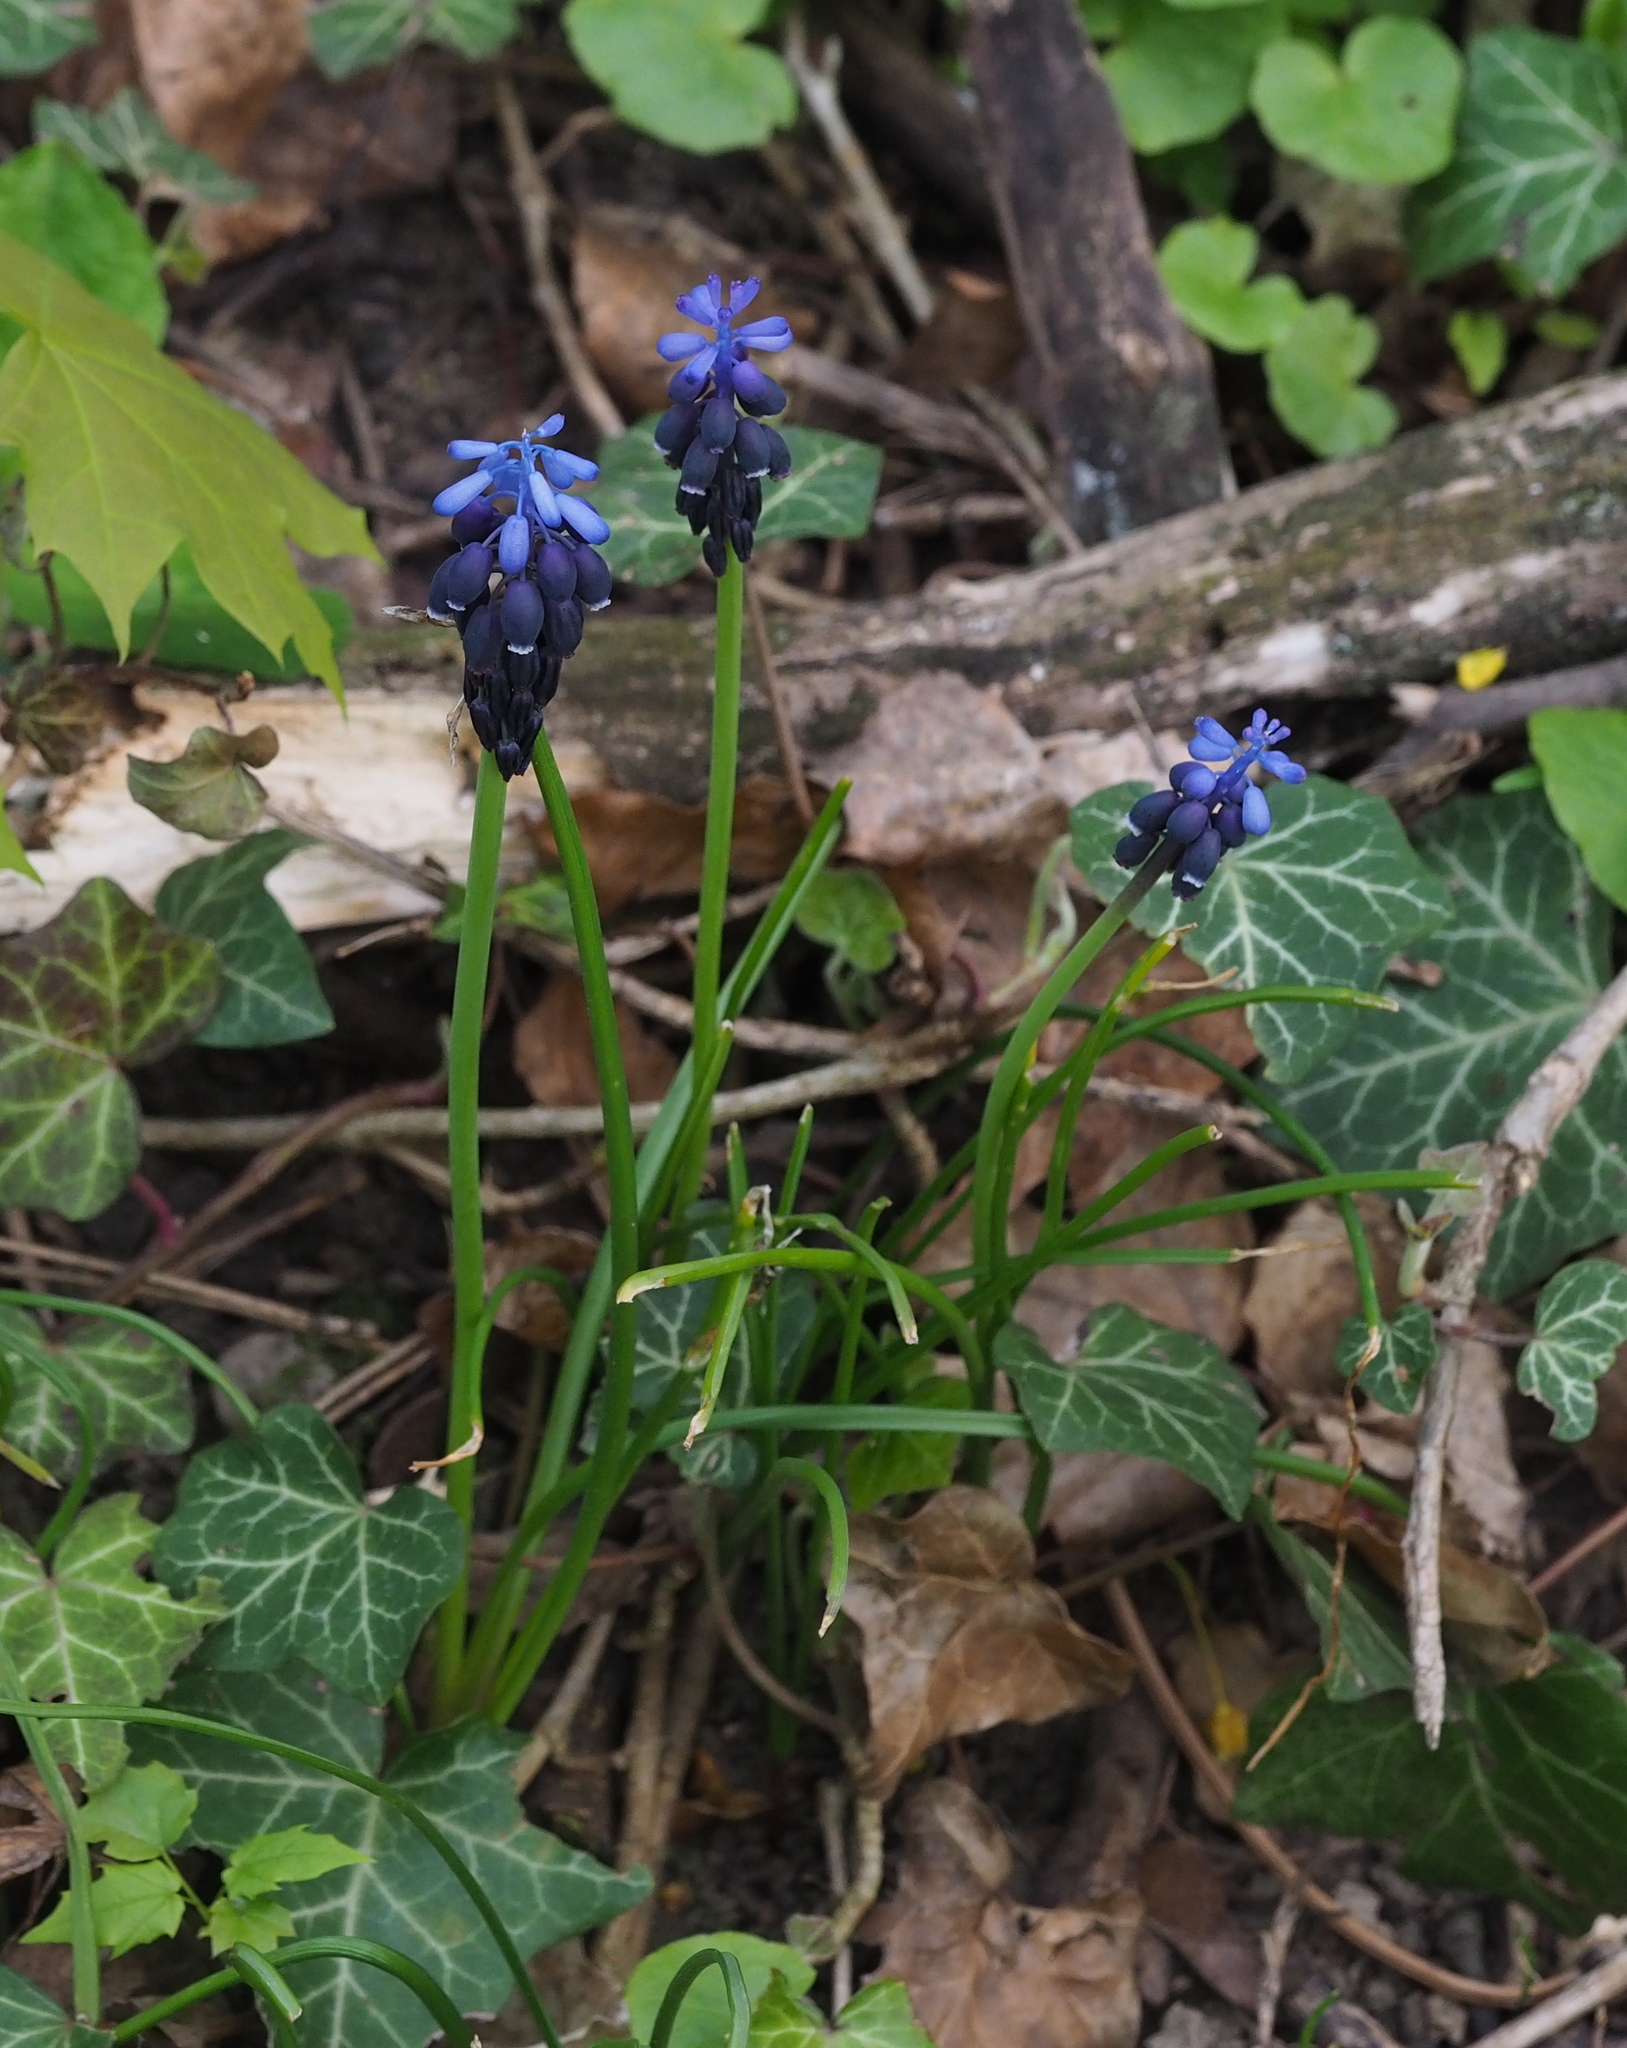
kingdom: Plantae
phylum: Tracheophyta
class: Liliopsida
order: Asparagales
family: Asparagaceae
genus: Muscari
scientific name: Muscari neglectum
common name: Grape-hyacinth
